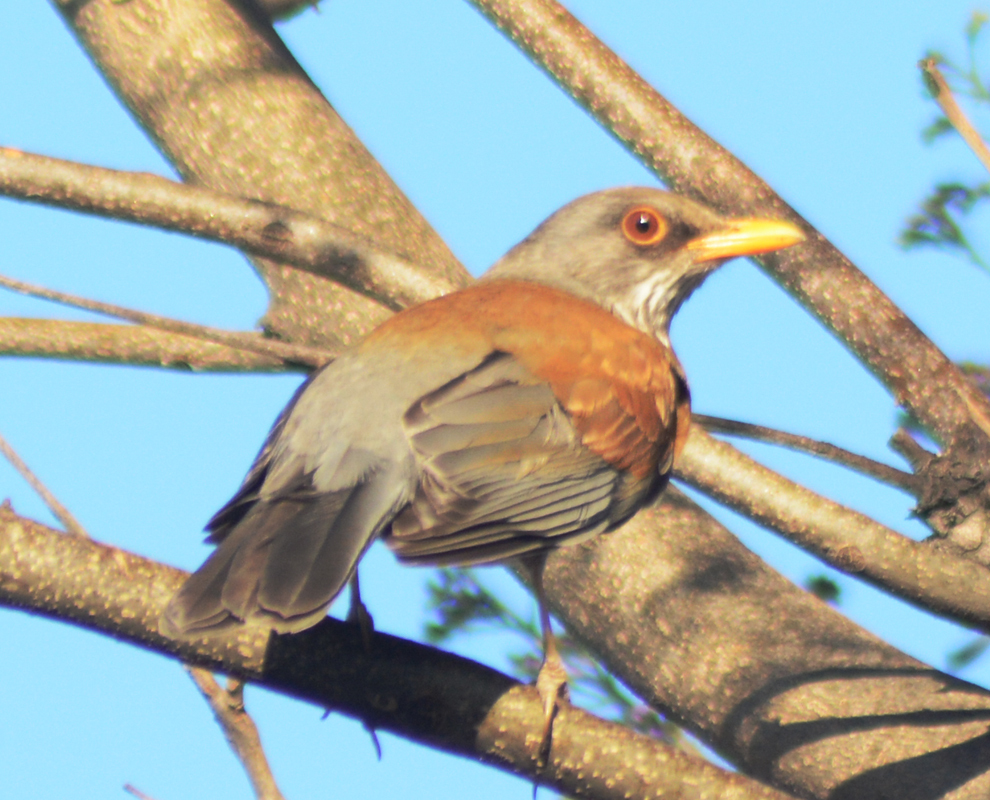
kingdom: Animalia
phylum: Chordata
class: Aves
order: Passeriformes
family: Turdidae
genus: Turdus
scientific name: Turdus rufopalliatus
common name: Rufous-backed robin
